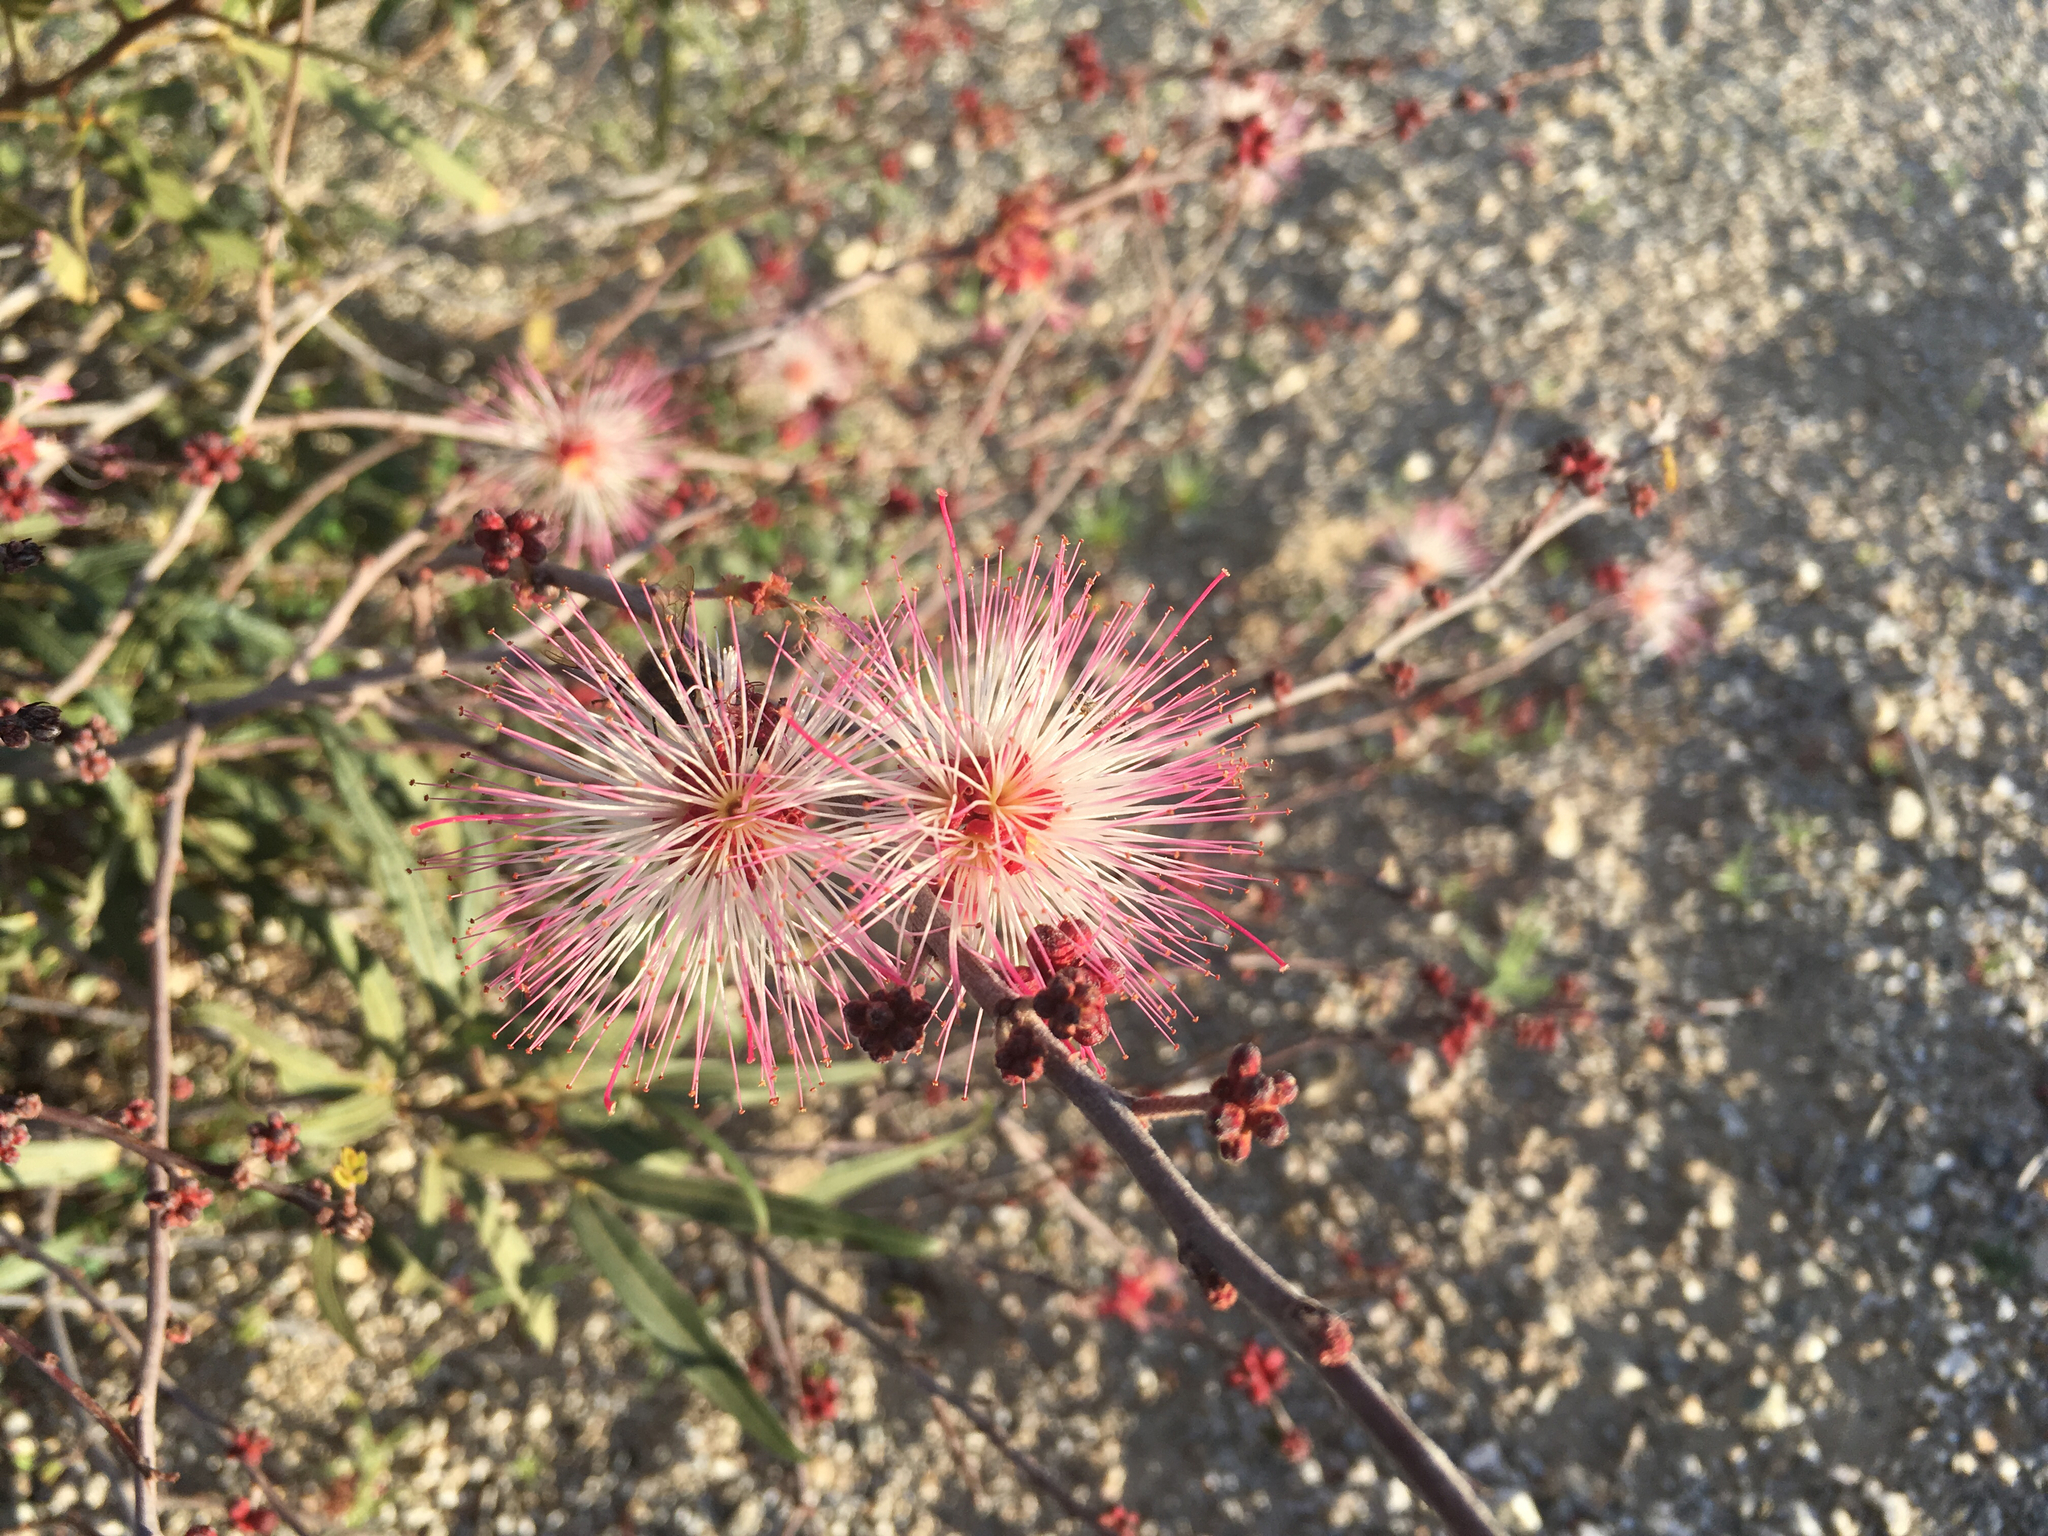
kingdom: Plantae
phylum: Tracheophyta
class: Magnoliopsida
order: Fabales
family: Fabaceae
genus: Calliandra
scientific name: Calliandra eriophylla
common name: Fairy-duster
